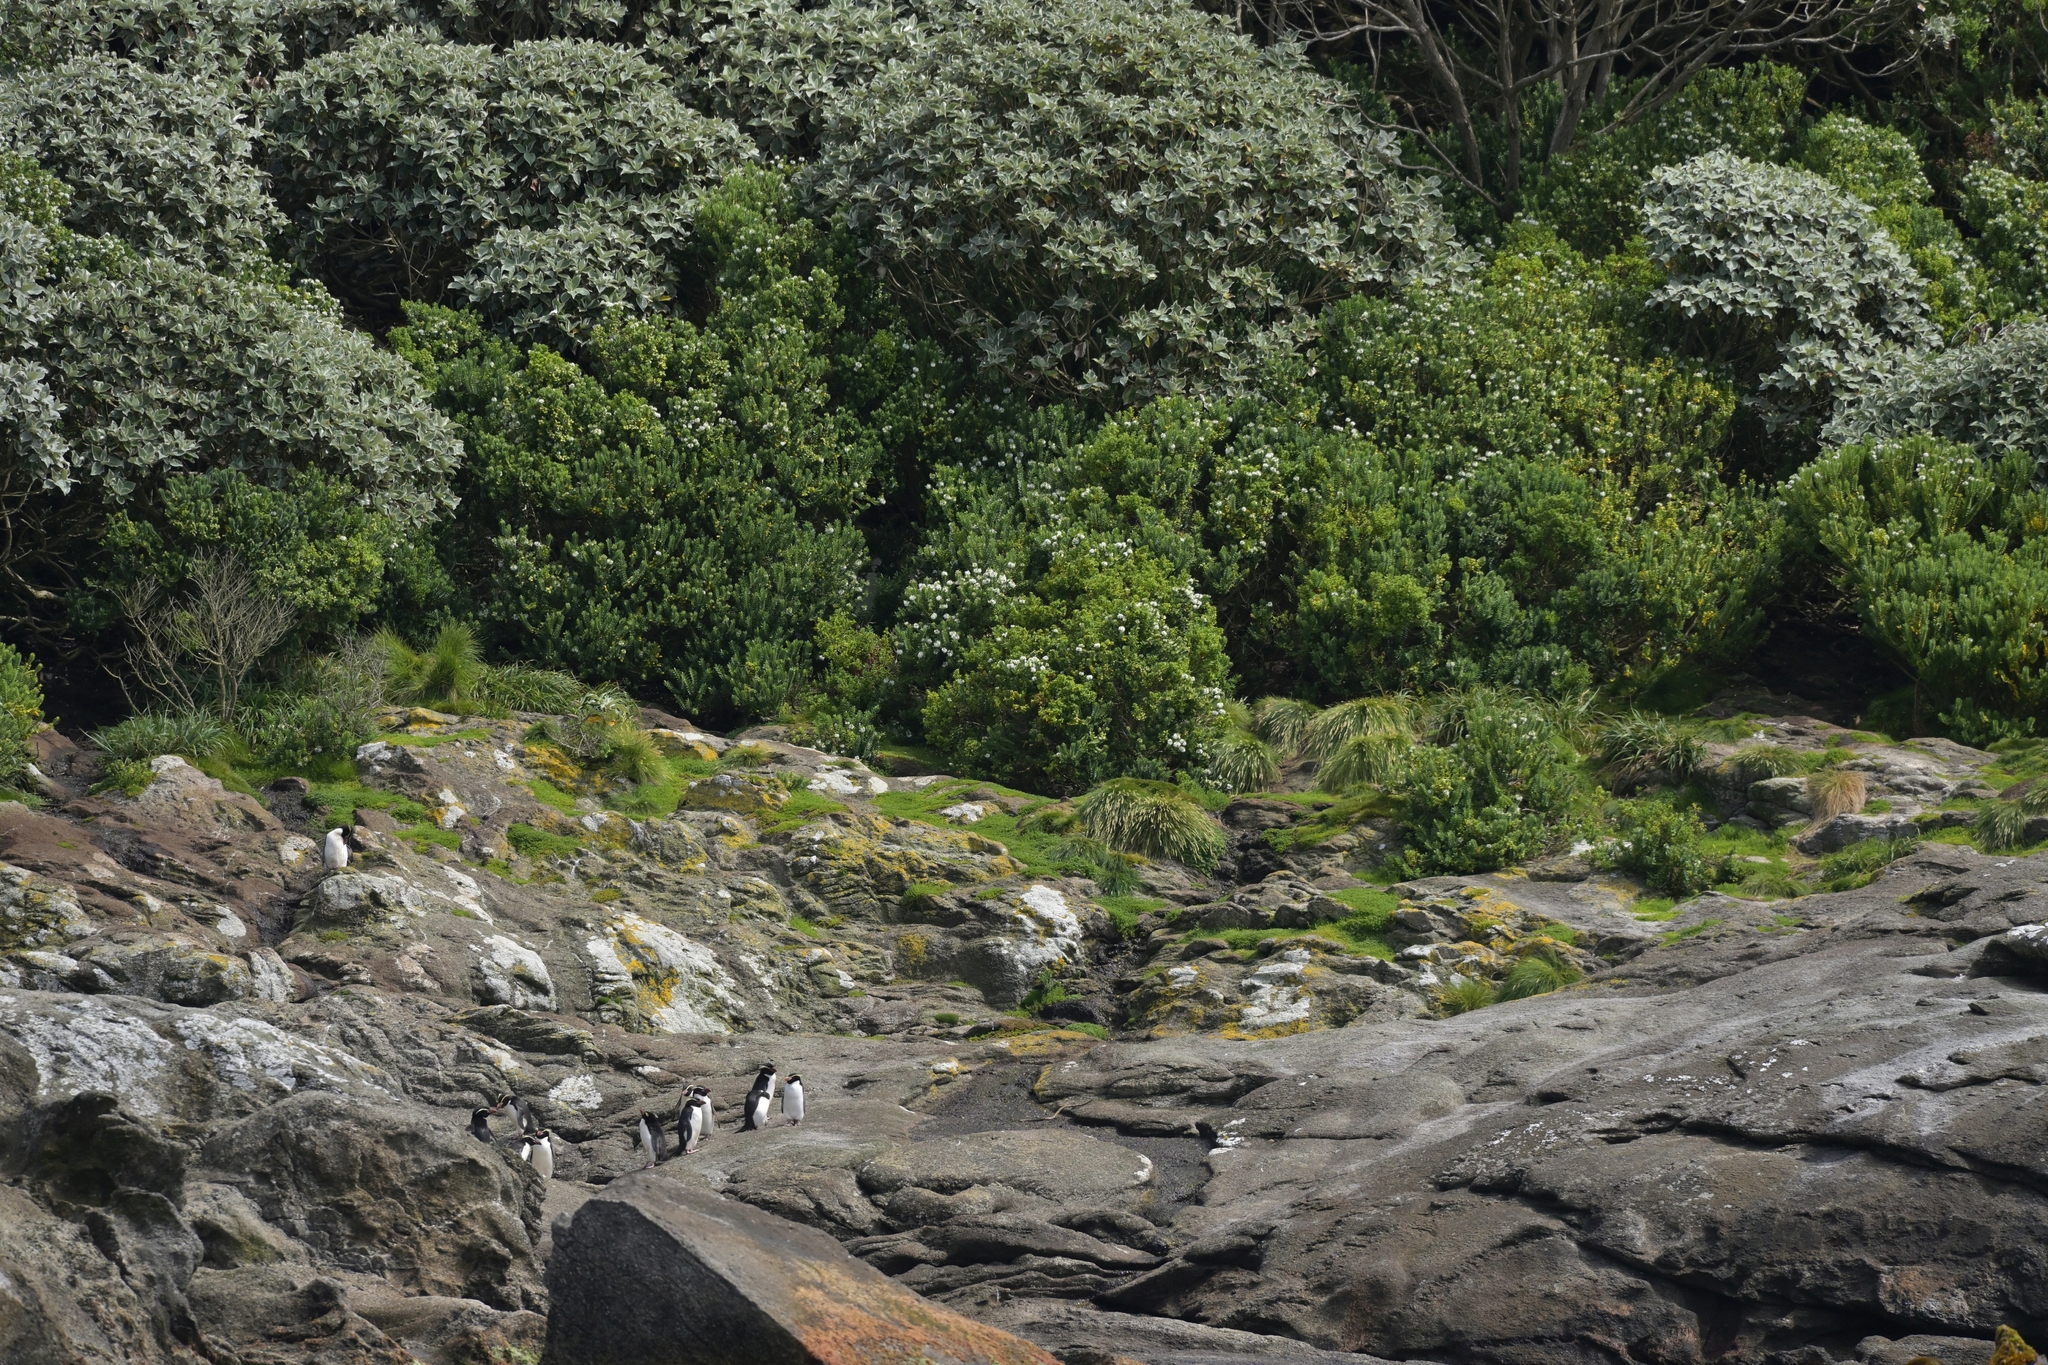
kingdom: Animalia
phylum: Chordata
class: Aves
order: Sphenisciformes
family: Spheniscidae
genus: Eudyptes
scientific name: Eudyptes robustus
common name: Snares penguin
